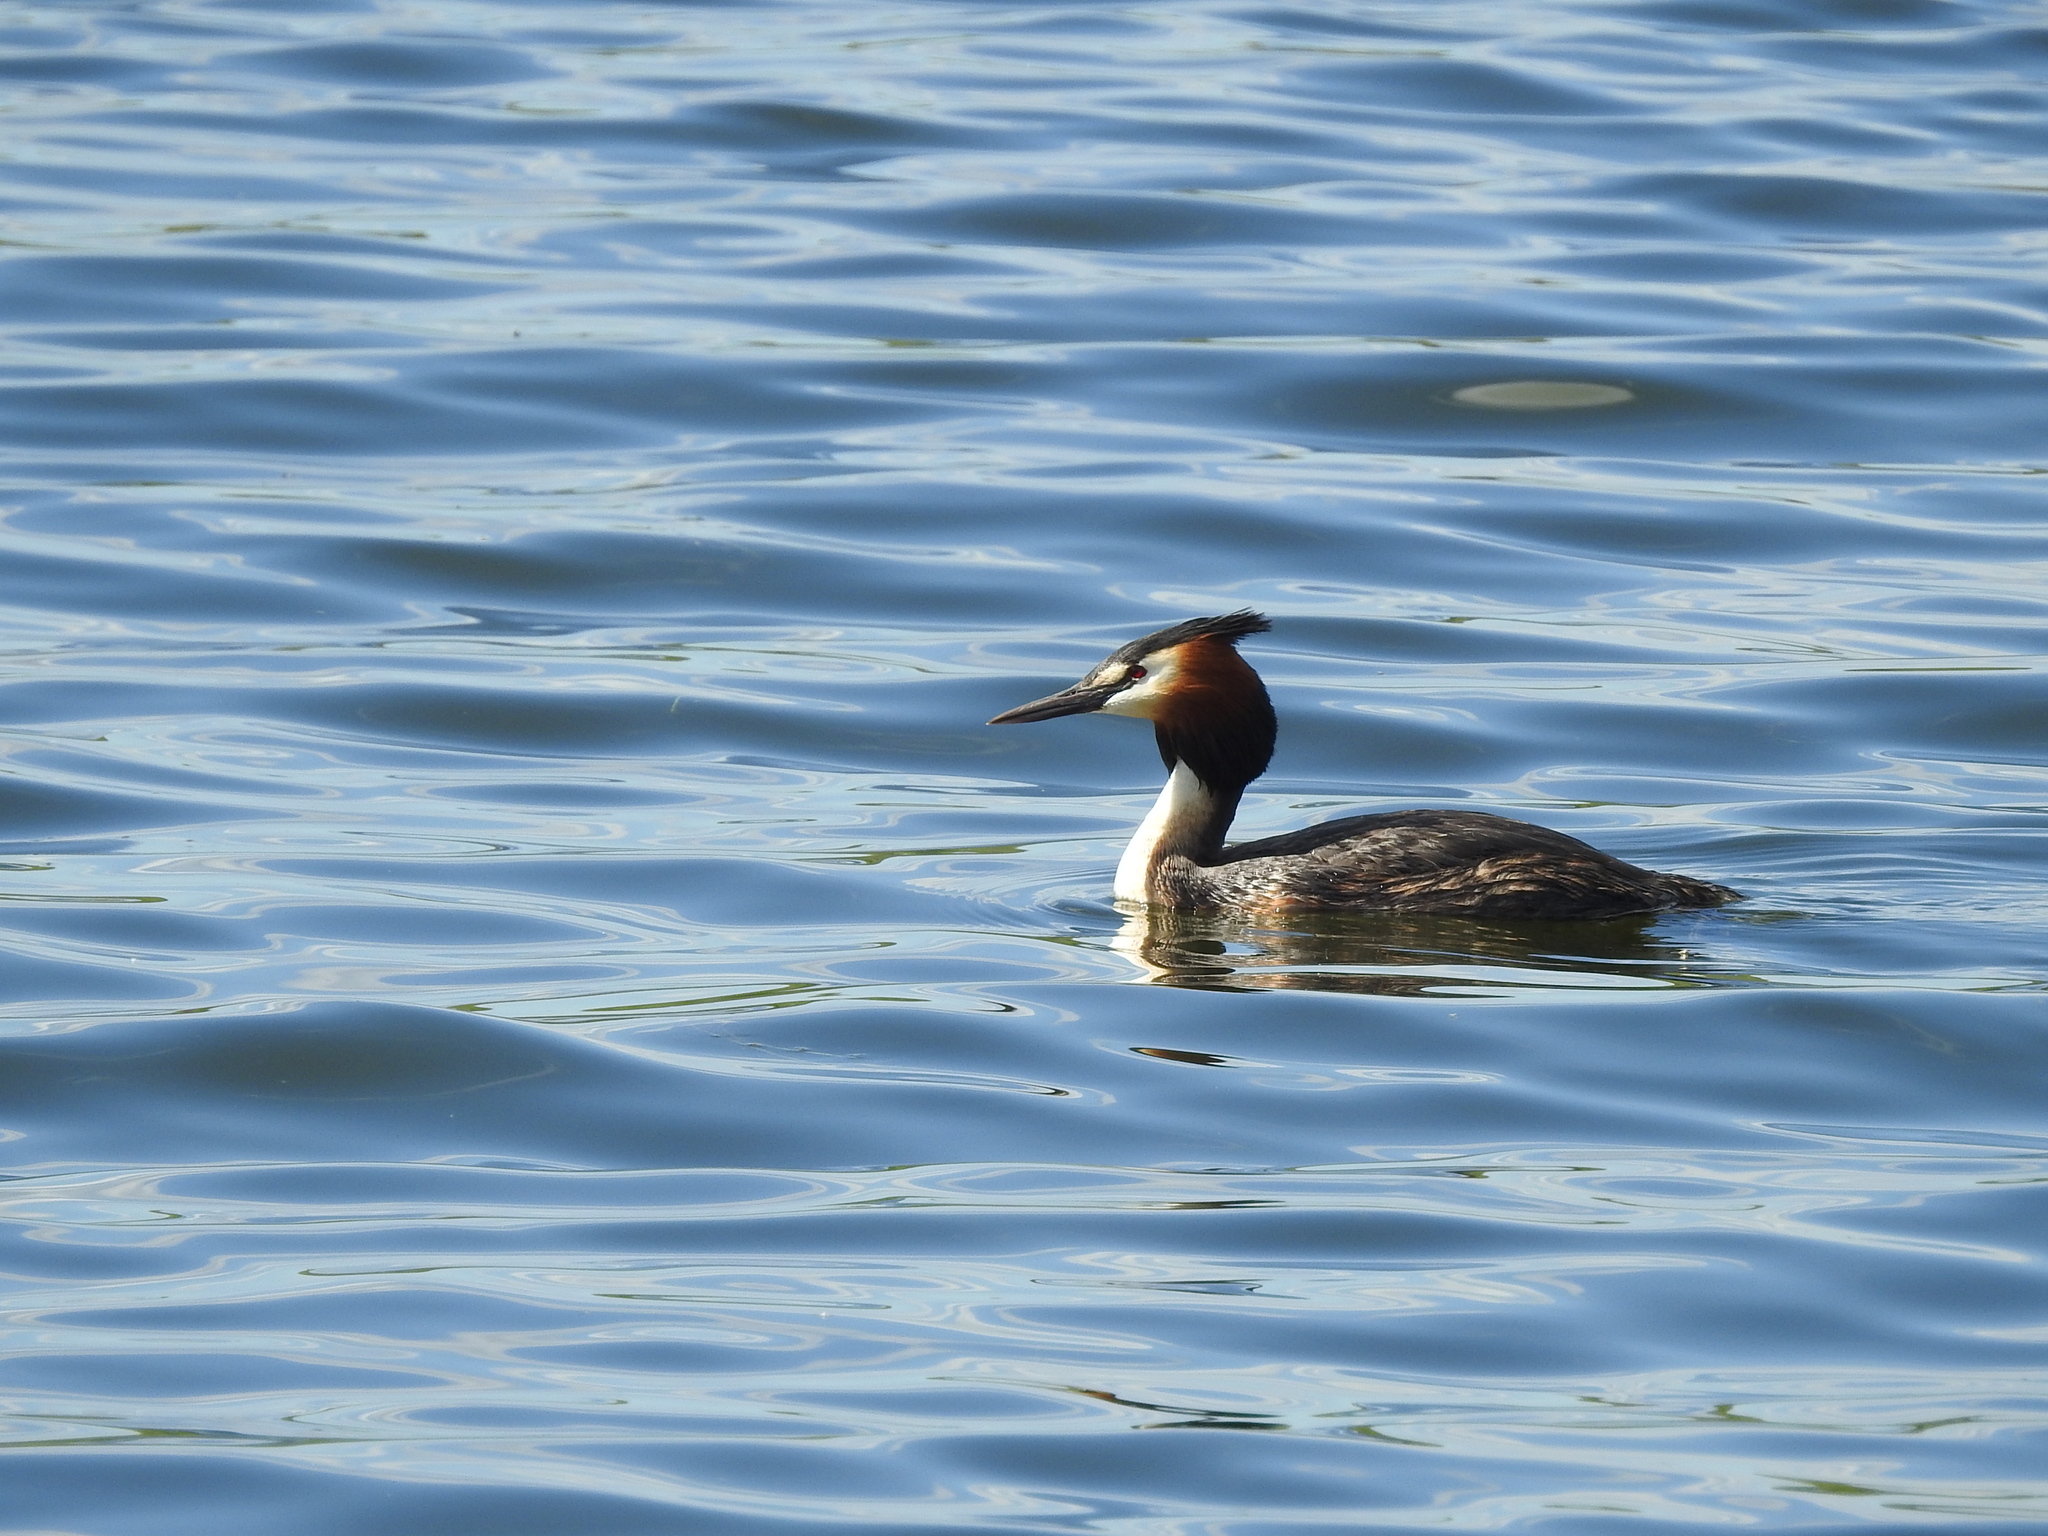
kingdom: Animalia
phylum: Chordata
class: Aves
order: Podicipediformes
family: Podicipedidae
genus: Podiceps
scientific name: Podiceps cristatus
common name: Great crested grebe
